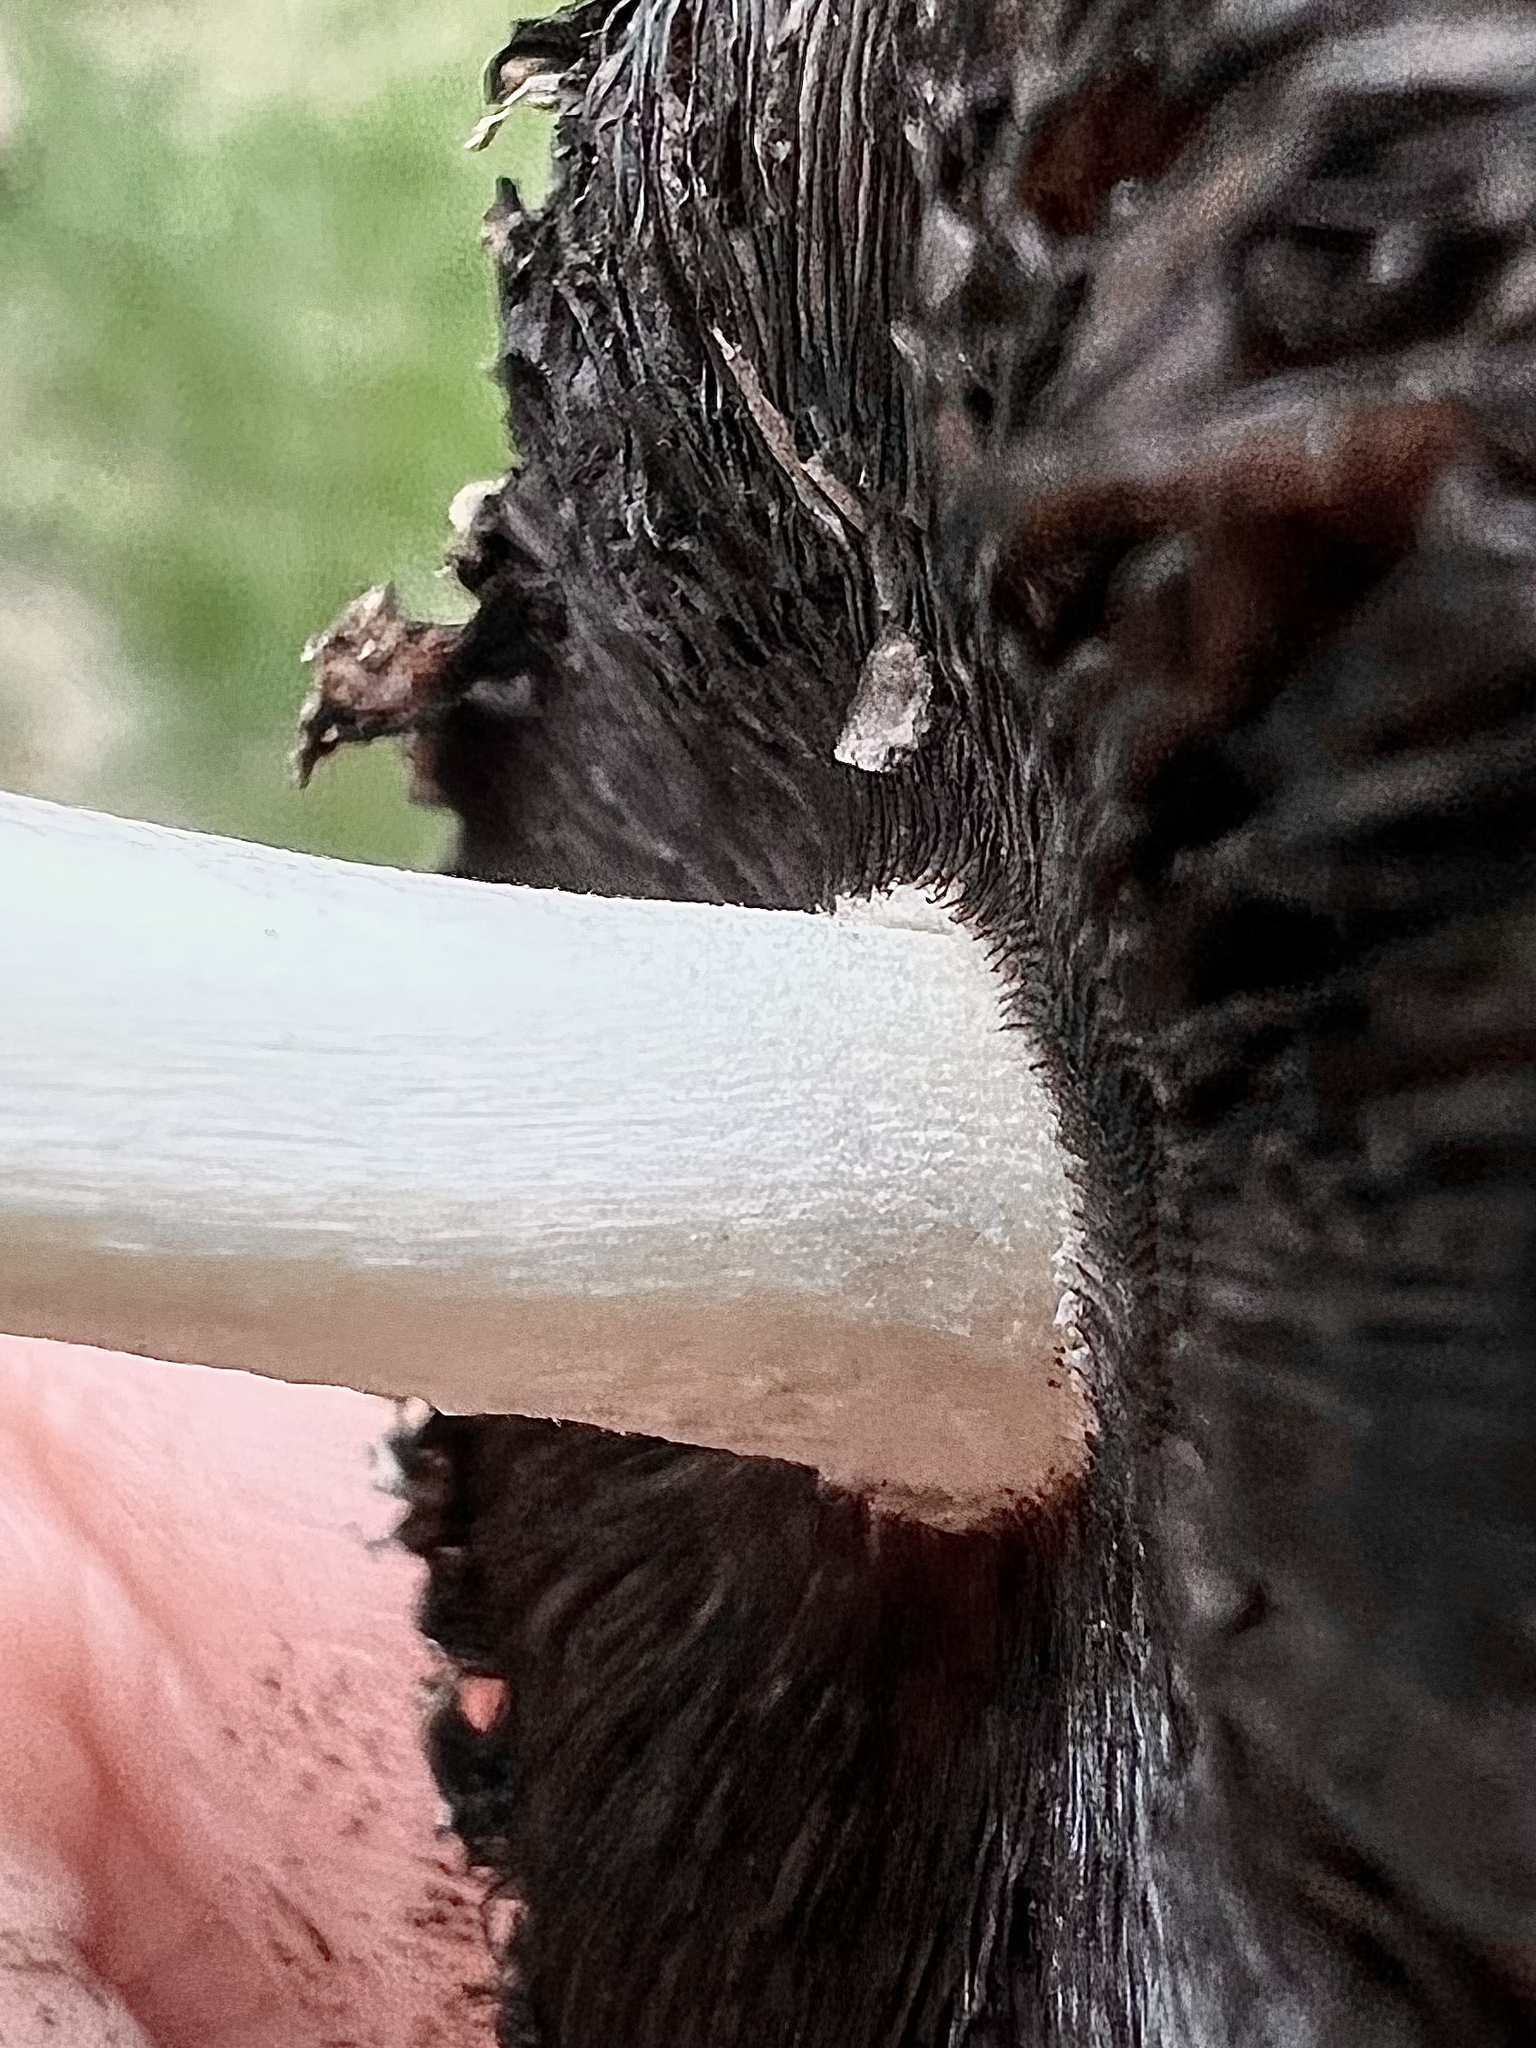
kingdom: Fungi
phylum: Basidiomycota
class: Agaricomycetes
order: Agaricales
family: Psathyrellaceae
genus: Coprinopsis
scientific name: Coprinopsis atramentaria
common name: Common ink-cap
